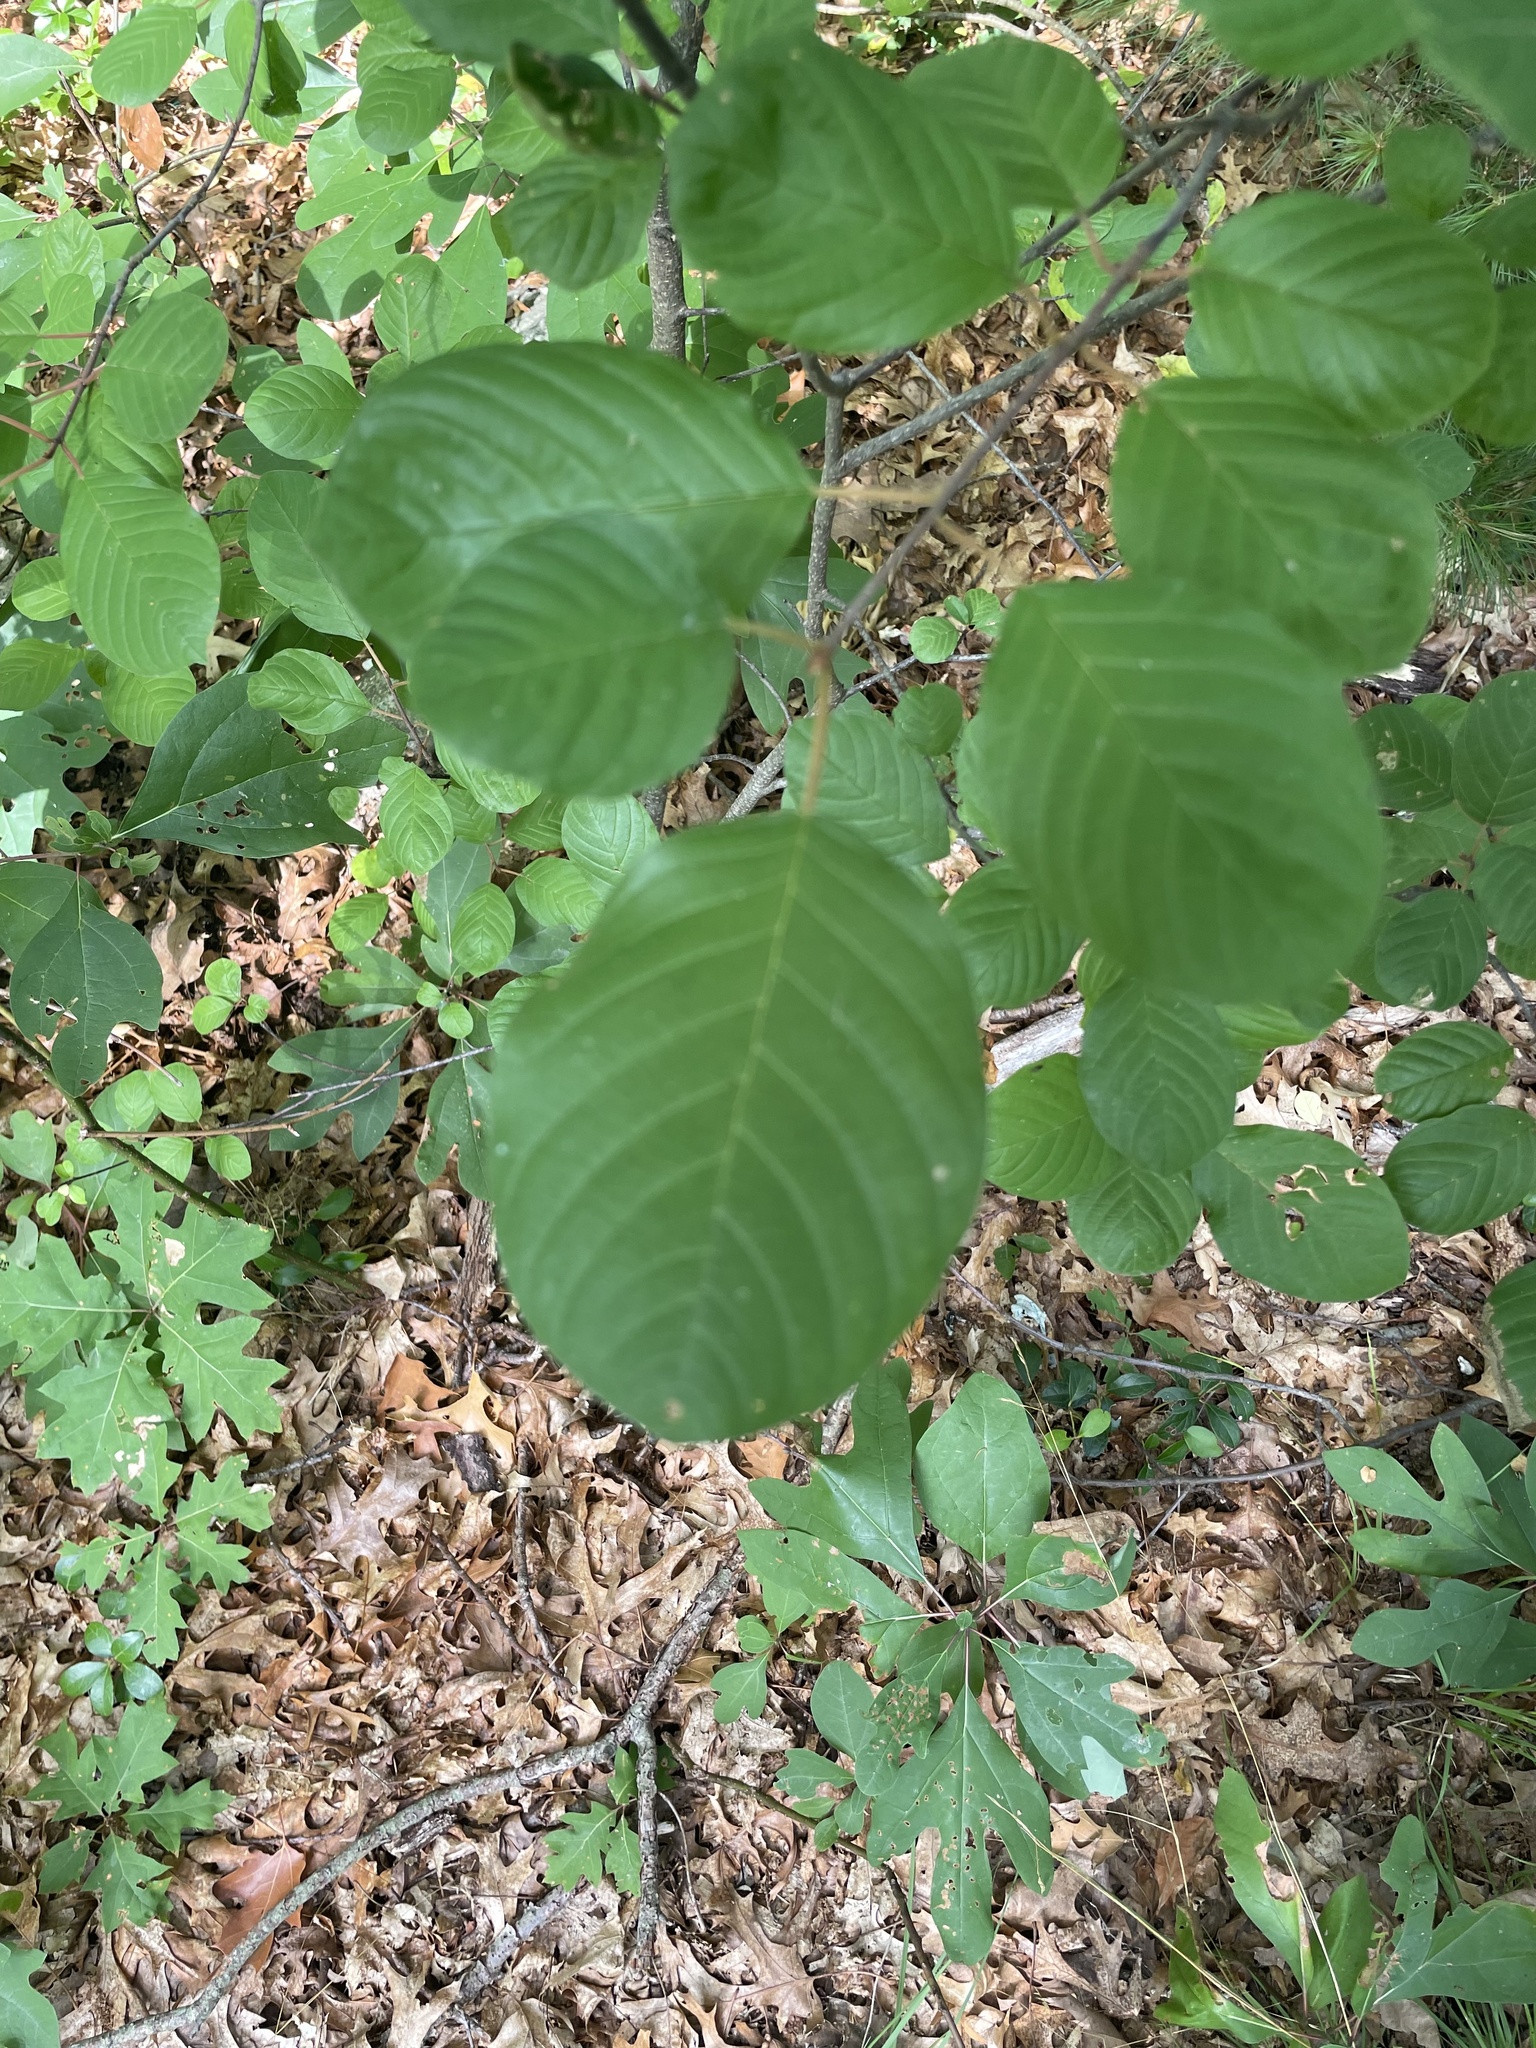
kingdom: Plantae
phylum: Tracheophyta
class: Magnoliopsida
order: Rosales
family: Rhamnaceae
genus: Frangula
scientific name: Frangula alnus
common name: Alder buckthorn
